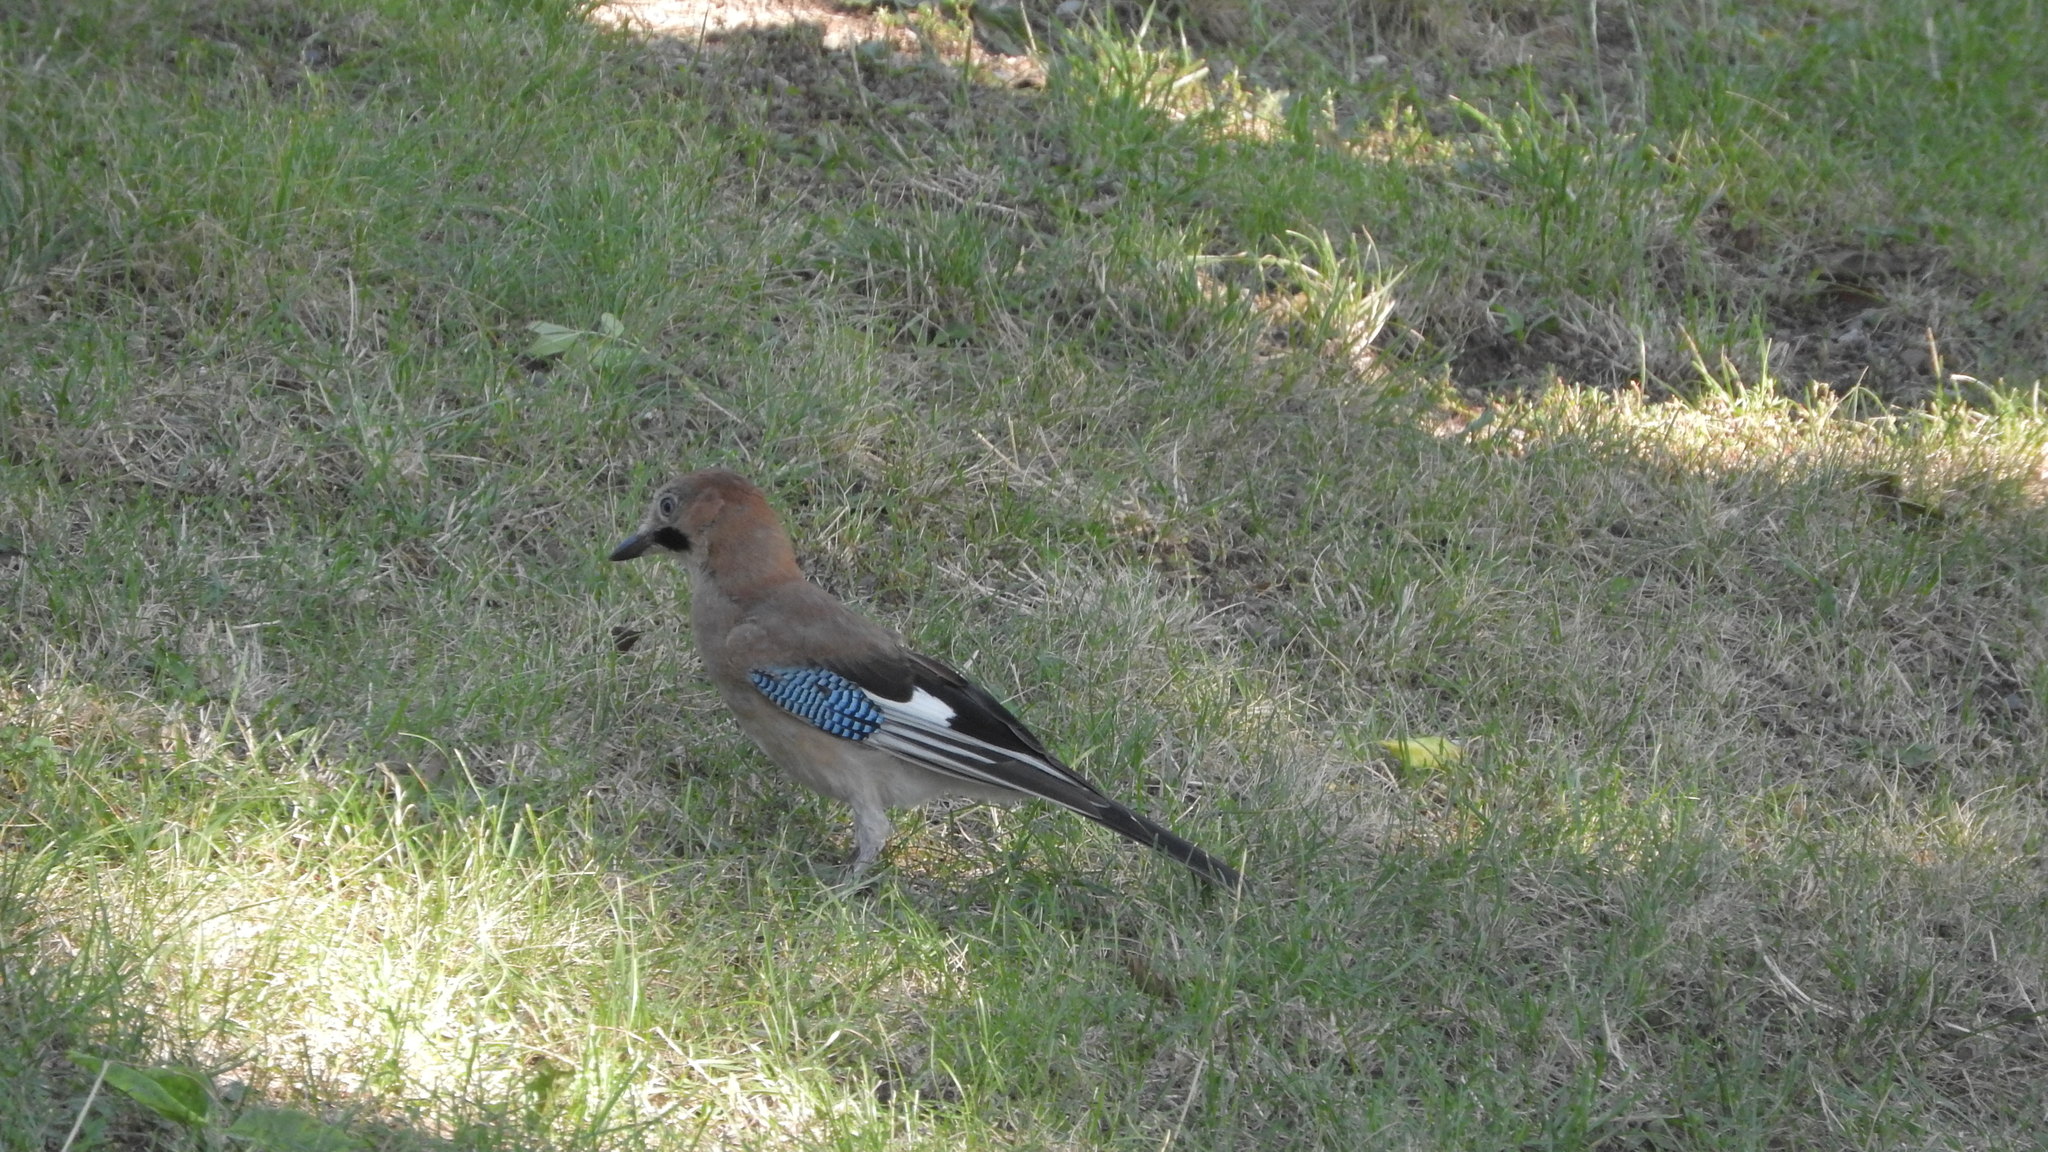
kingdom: Animalia
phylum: Chordata
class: Aves
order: Passeriformes
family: Corvidae
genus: Garrulus
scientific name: Garrulus glandarius
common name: Eurasian jay
